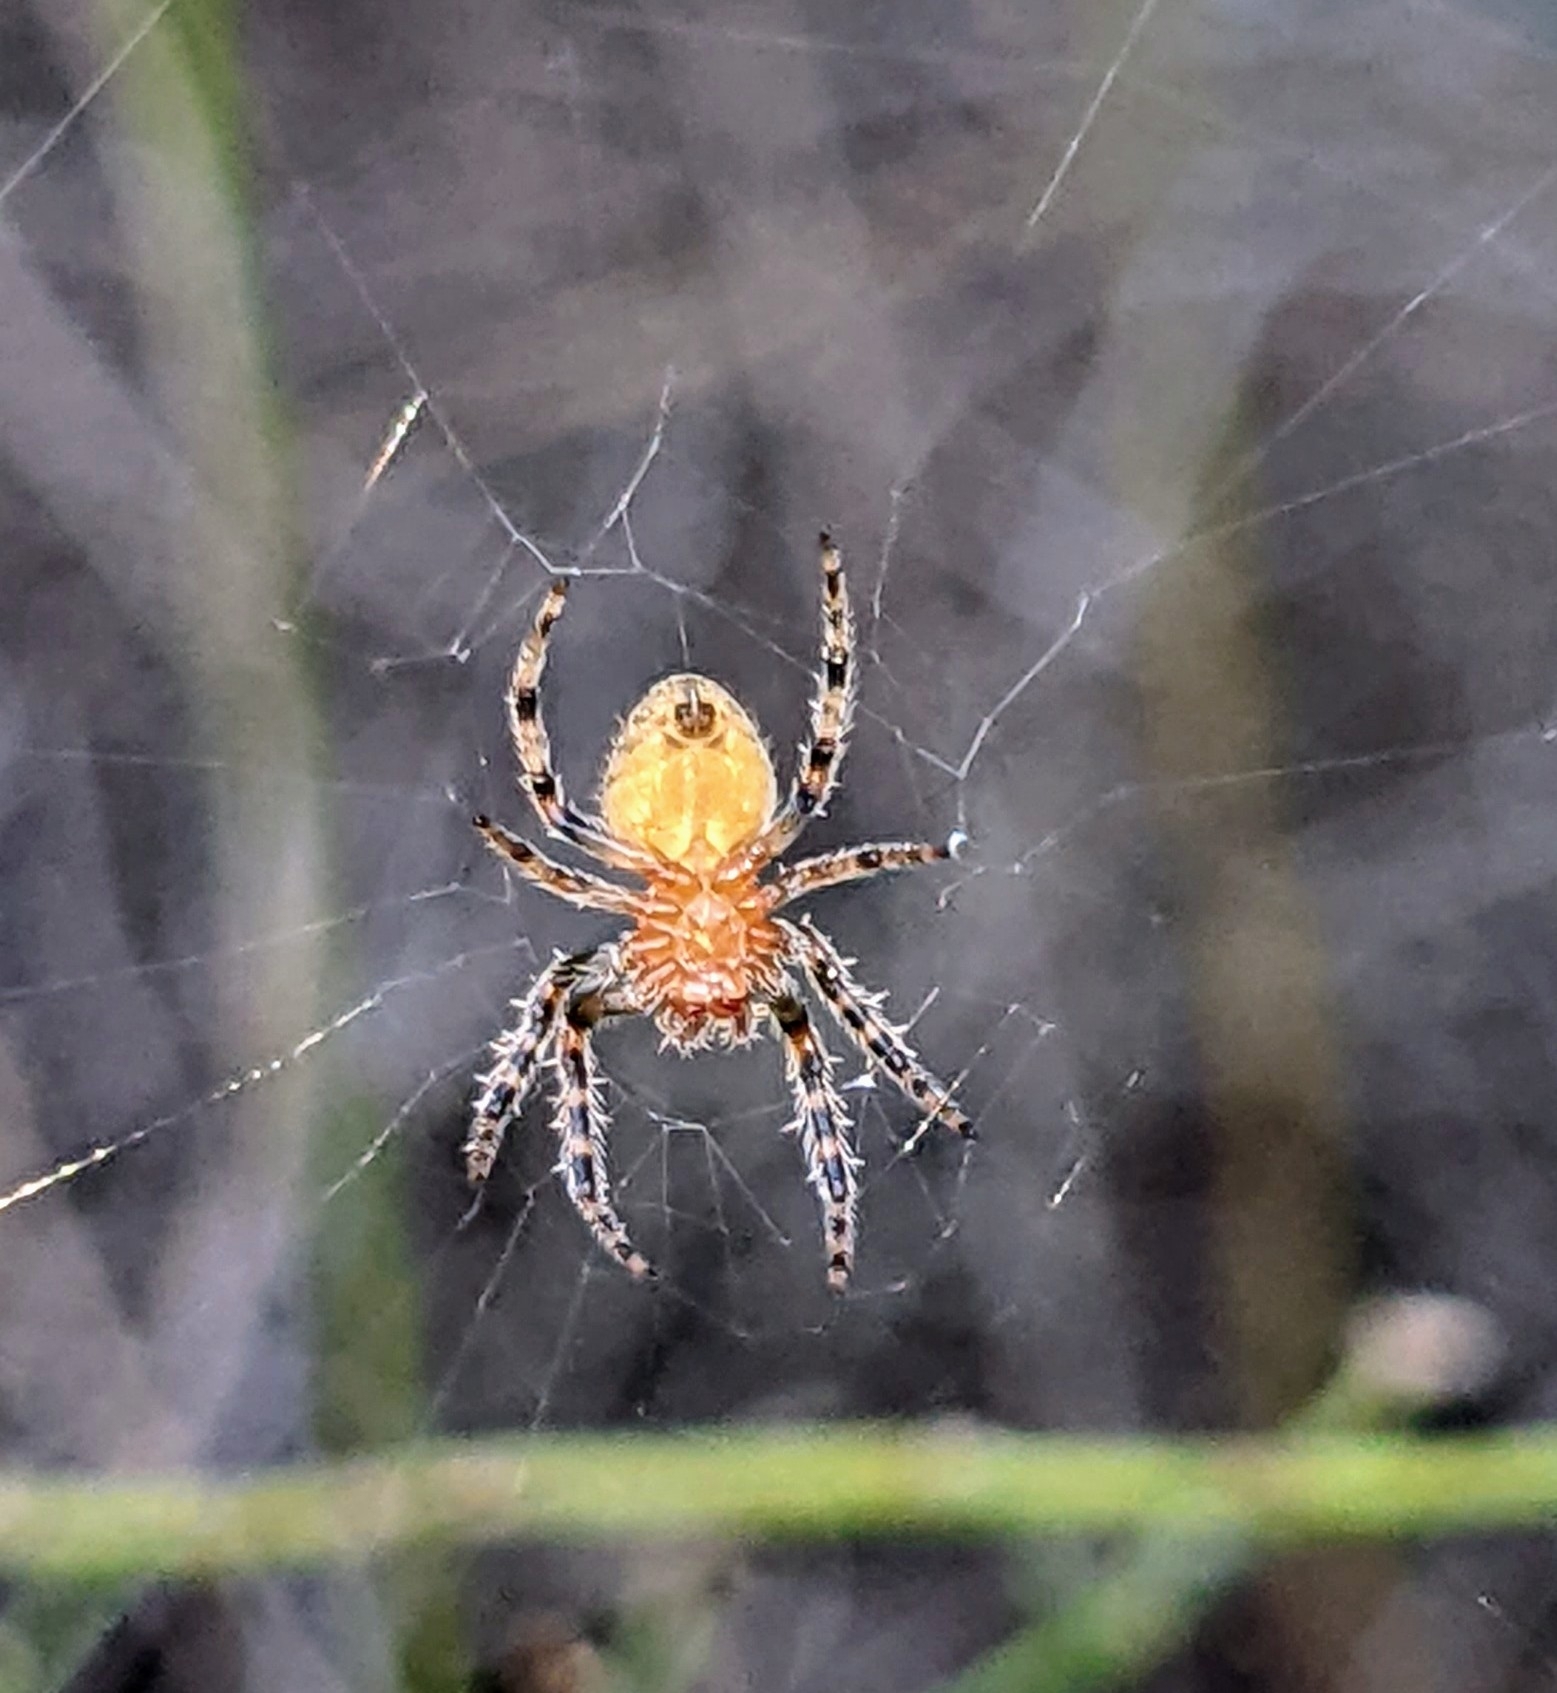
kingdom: Animalia
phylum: Arthropoda
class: Arachnida
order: Araneae
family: Araneidae
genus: Eriophora
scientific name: Eriophora ravilla
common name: Orb weavers
